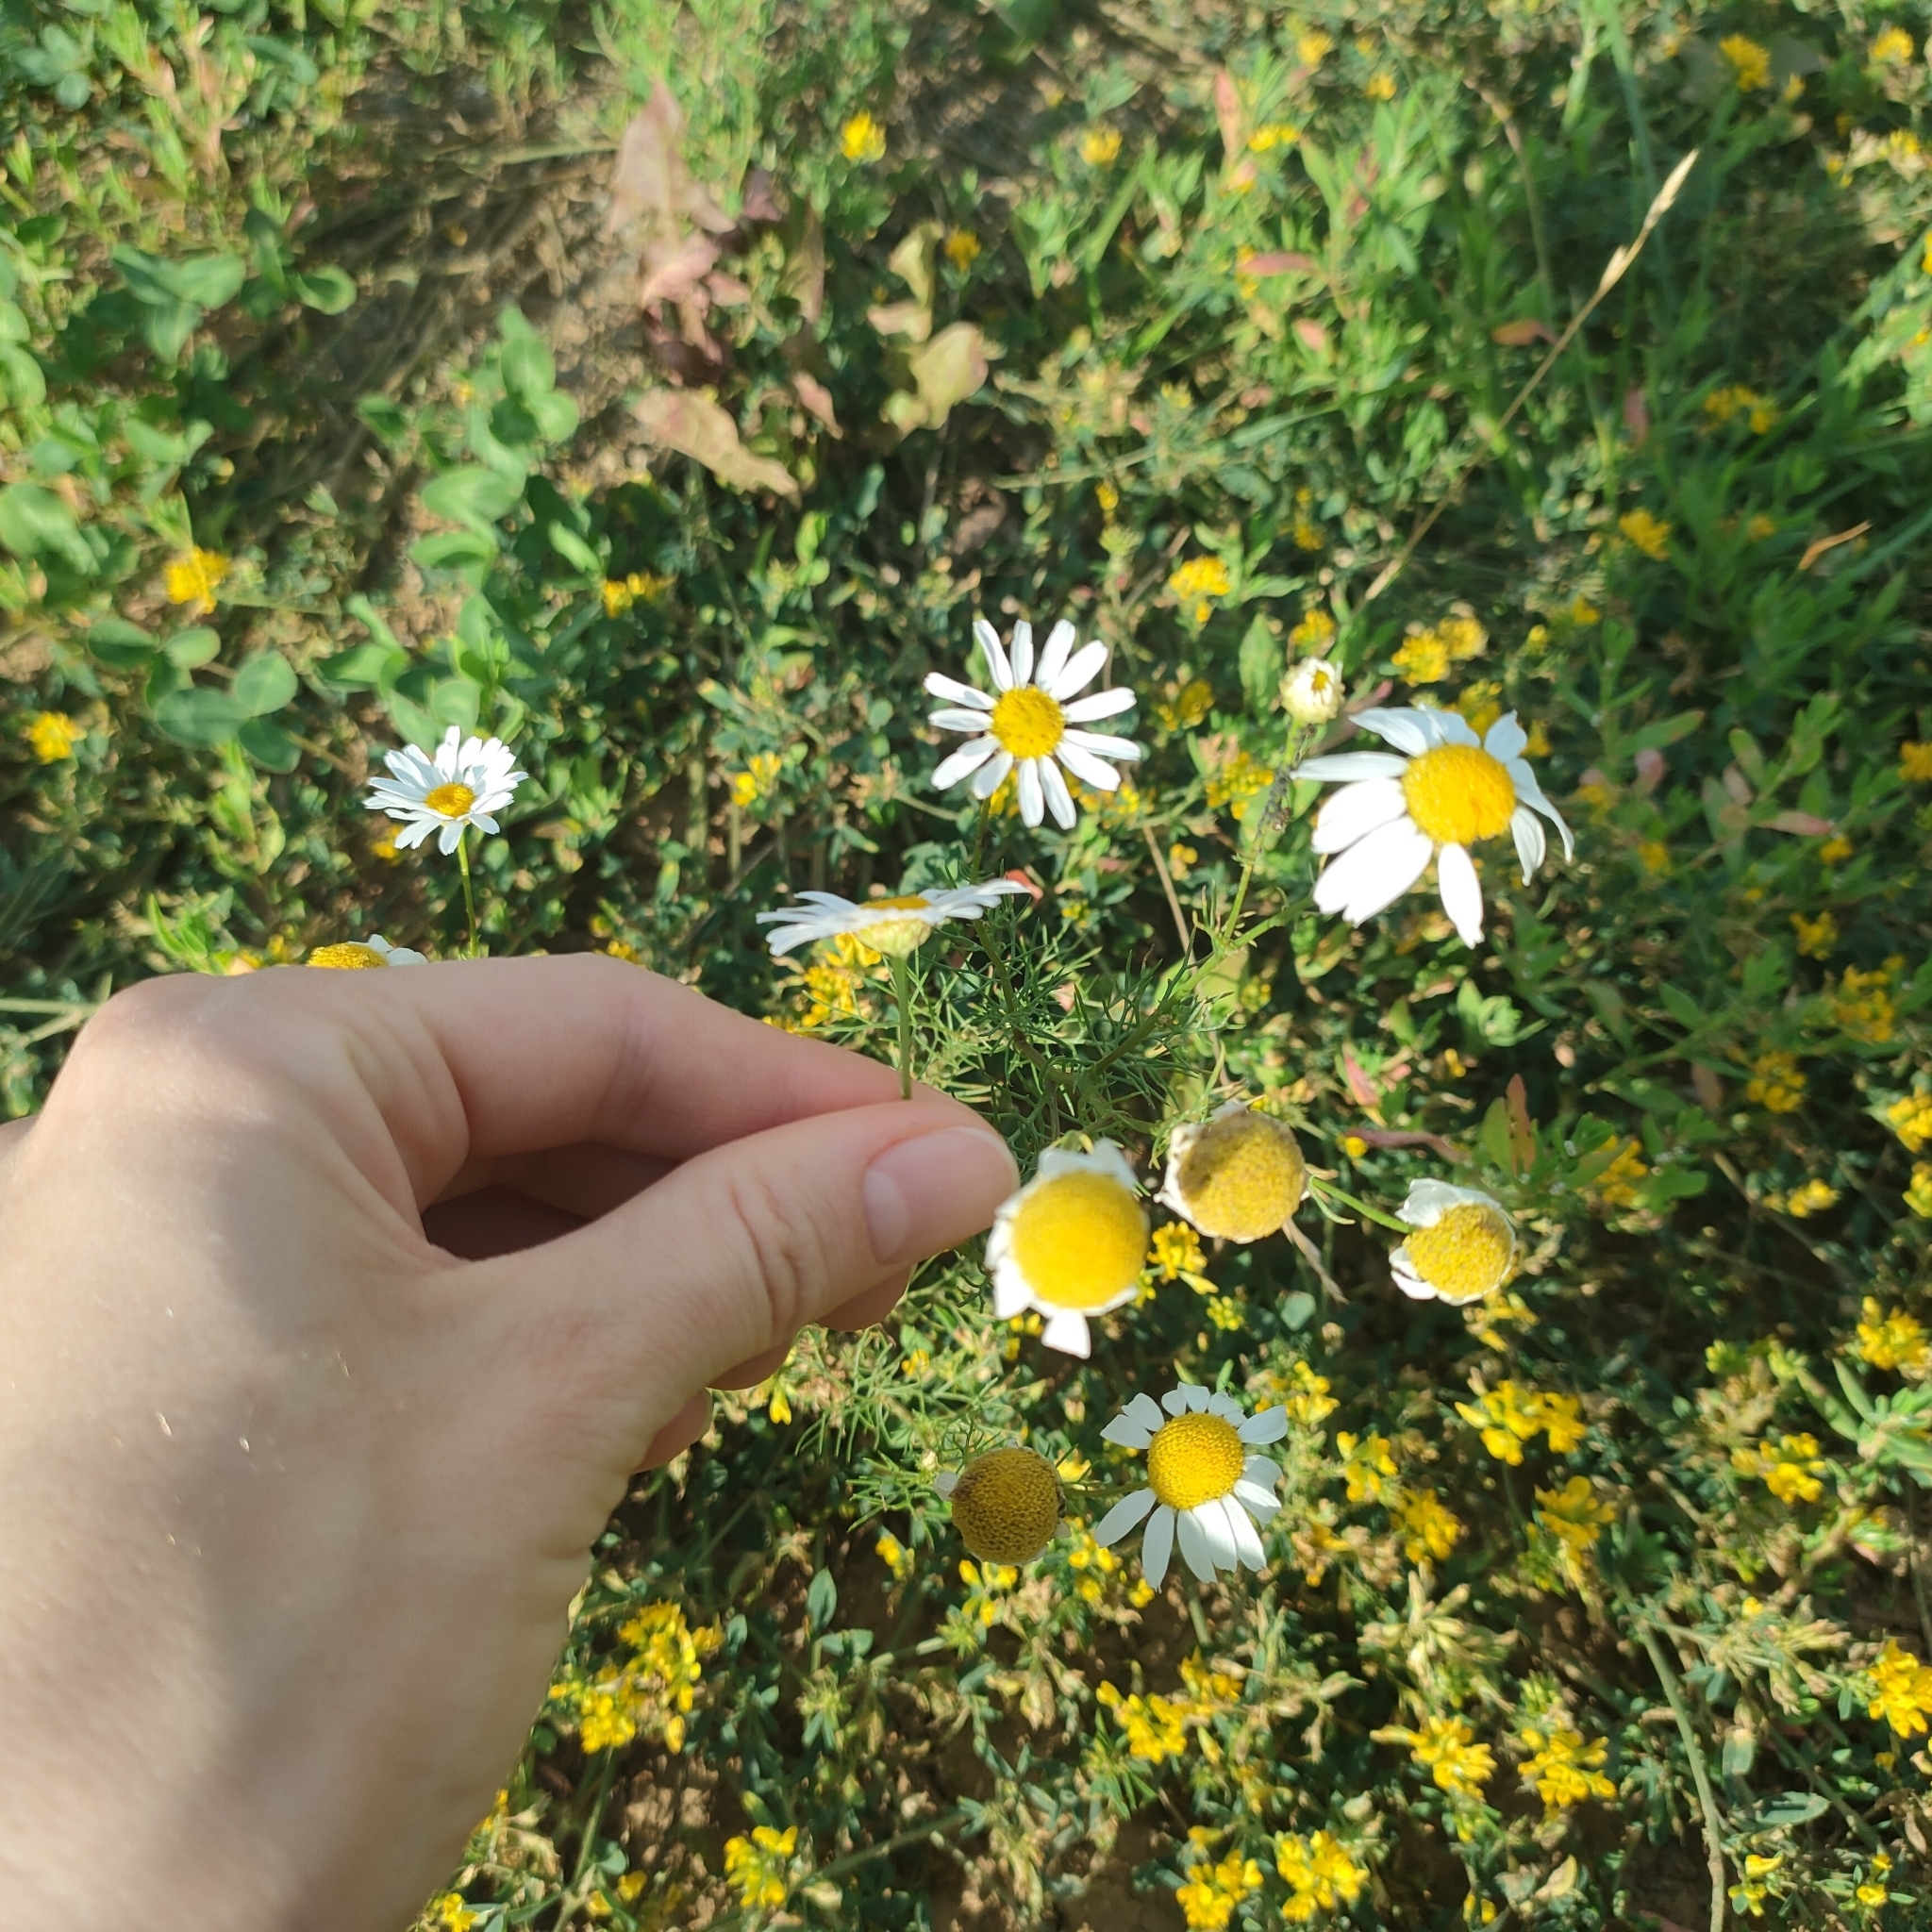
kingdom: Plantae
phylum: Tracheophyta
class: Magnoliopsida
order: Asterales
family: Asteraceae
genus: Tripleurospermum
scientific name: Tripleurospermum inodorum
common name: Scentless mayweed
